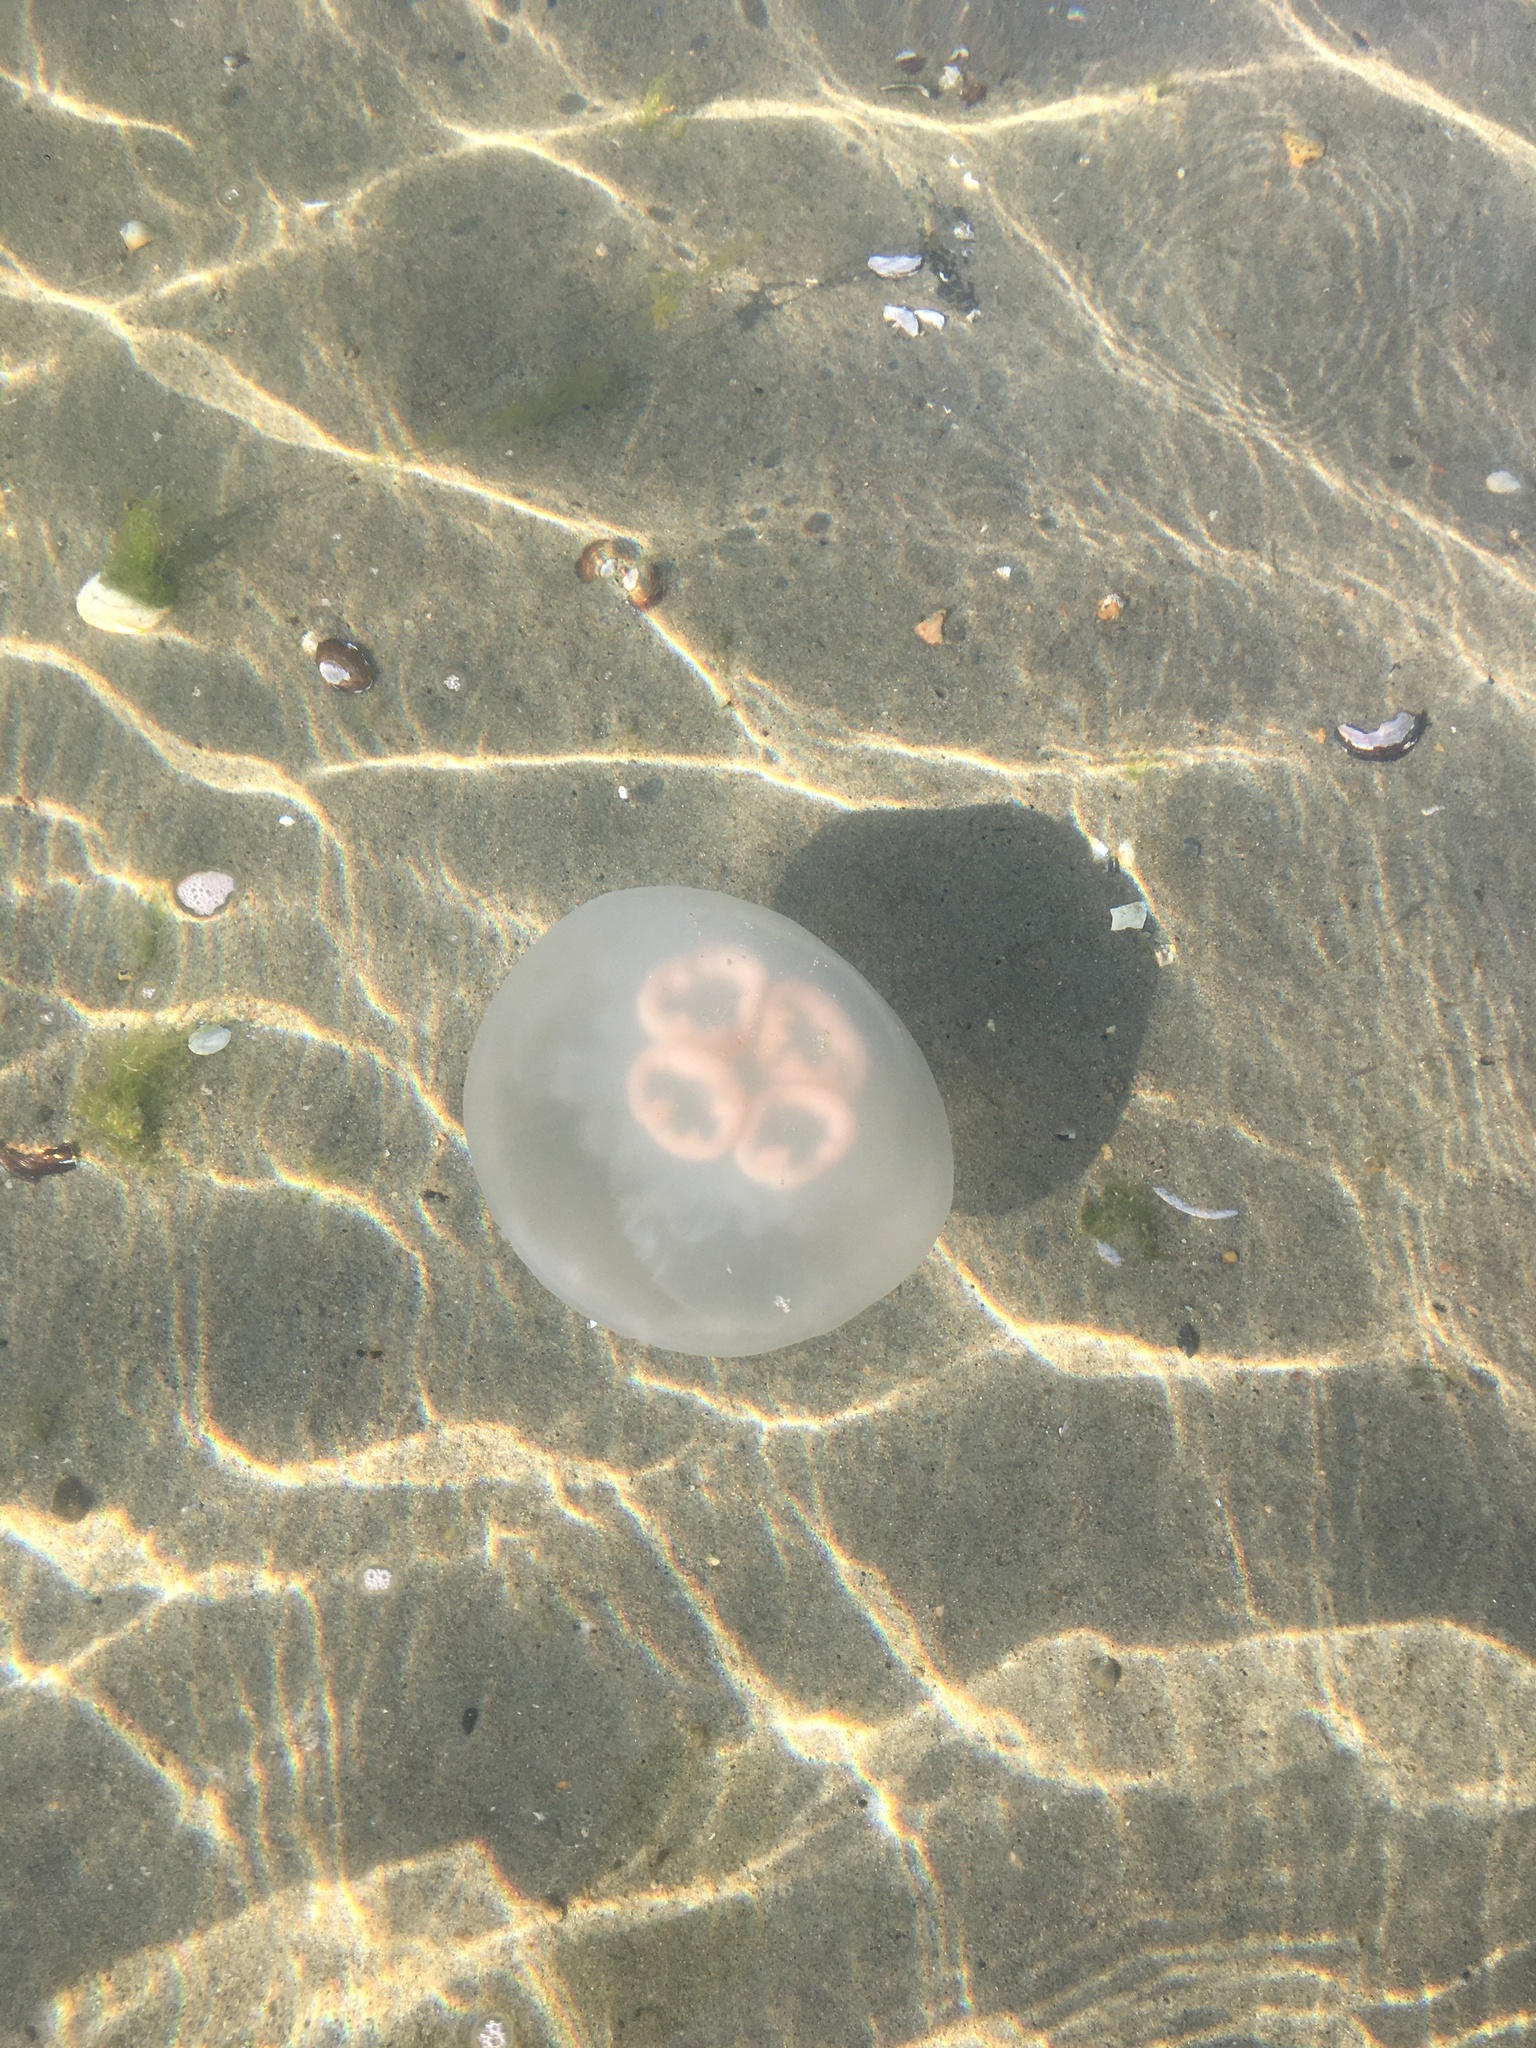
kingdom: Animalia
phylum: Cnidaria
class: Scyphozoa
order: Semaeostomeae
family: Ulmaridae
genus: Aurelia
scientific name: Aurelia labiata
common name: Pacific moon jelly
